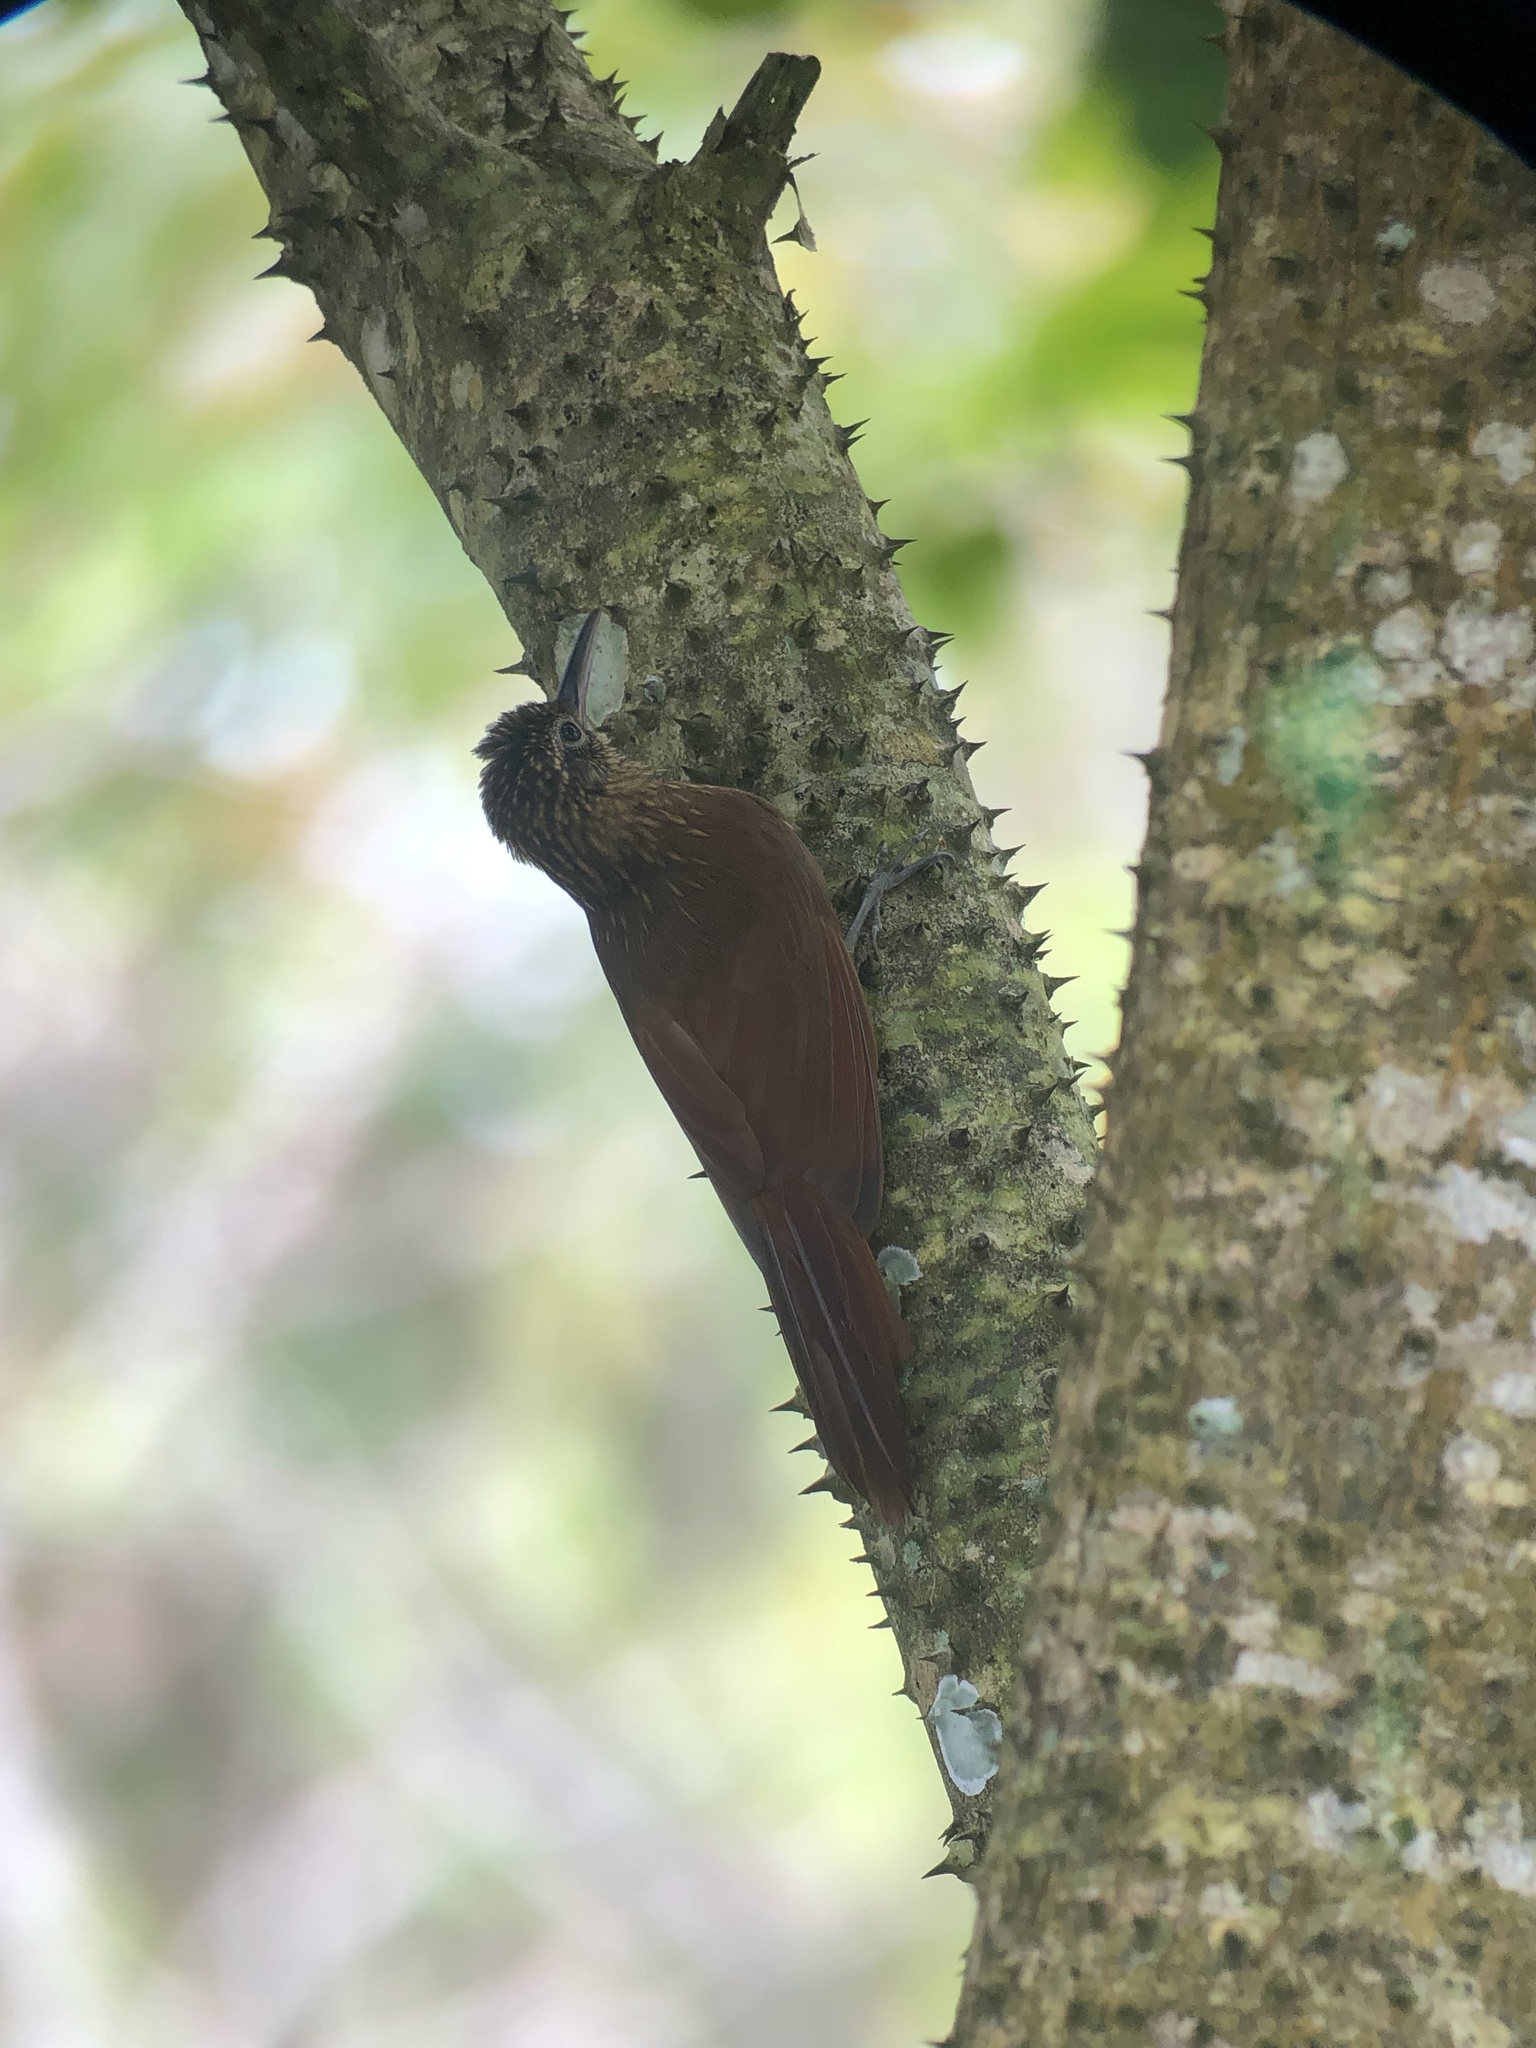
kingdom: Animalia
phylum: Chordata
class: Aves
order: Passeriformes
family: Furnariidae
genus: Xiphorhynchus
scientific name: Xiphorhynchus susurrans
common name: Cocoa woodcreeper
